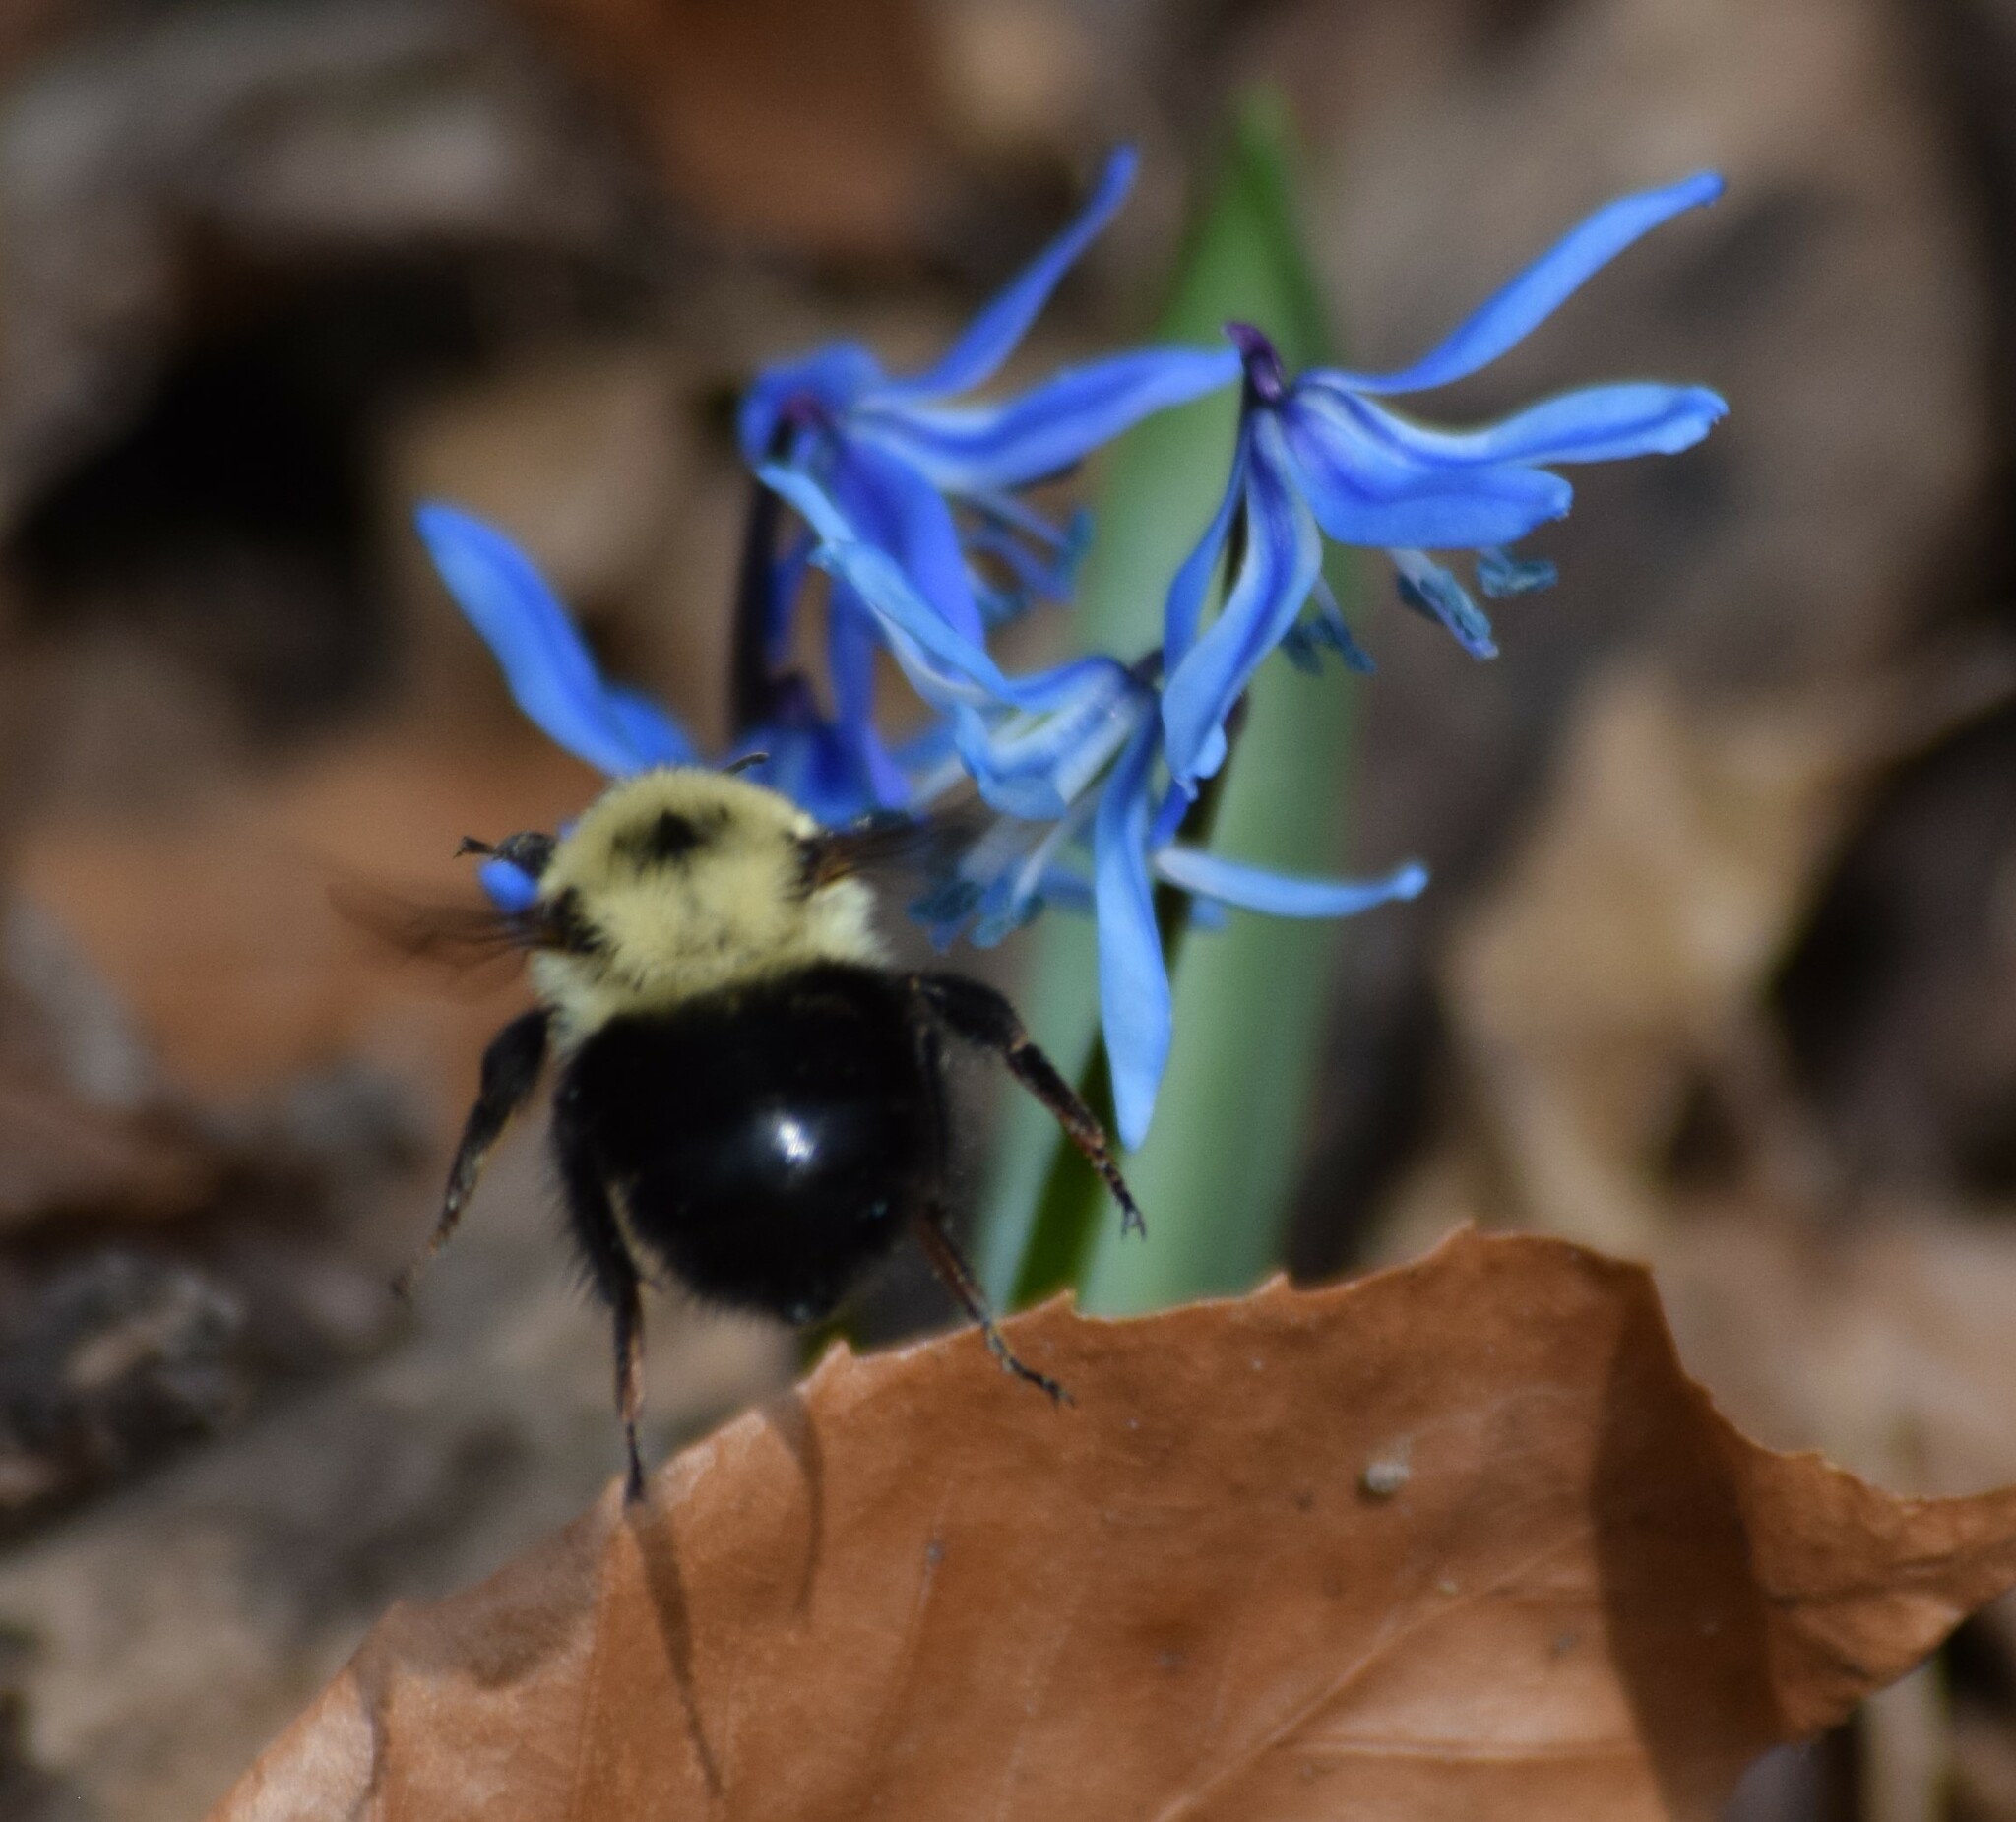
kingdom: Animalia
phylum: Arthropoda
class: Insecta
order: Hymenoptera
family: Apidae
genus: Bombus
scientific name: Bombus bimaculatus
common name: Two-spotted bumble bee
